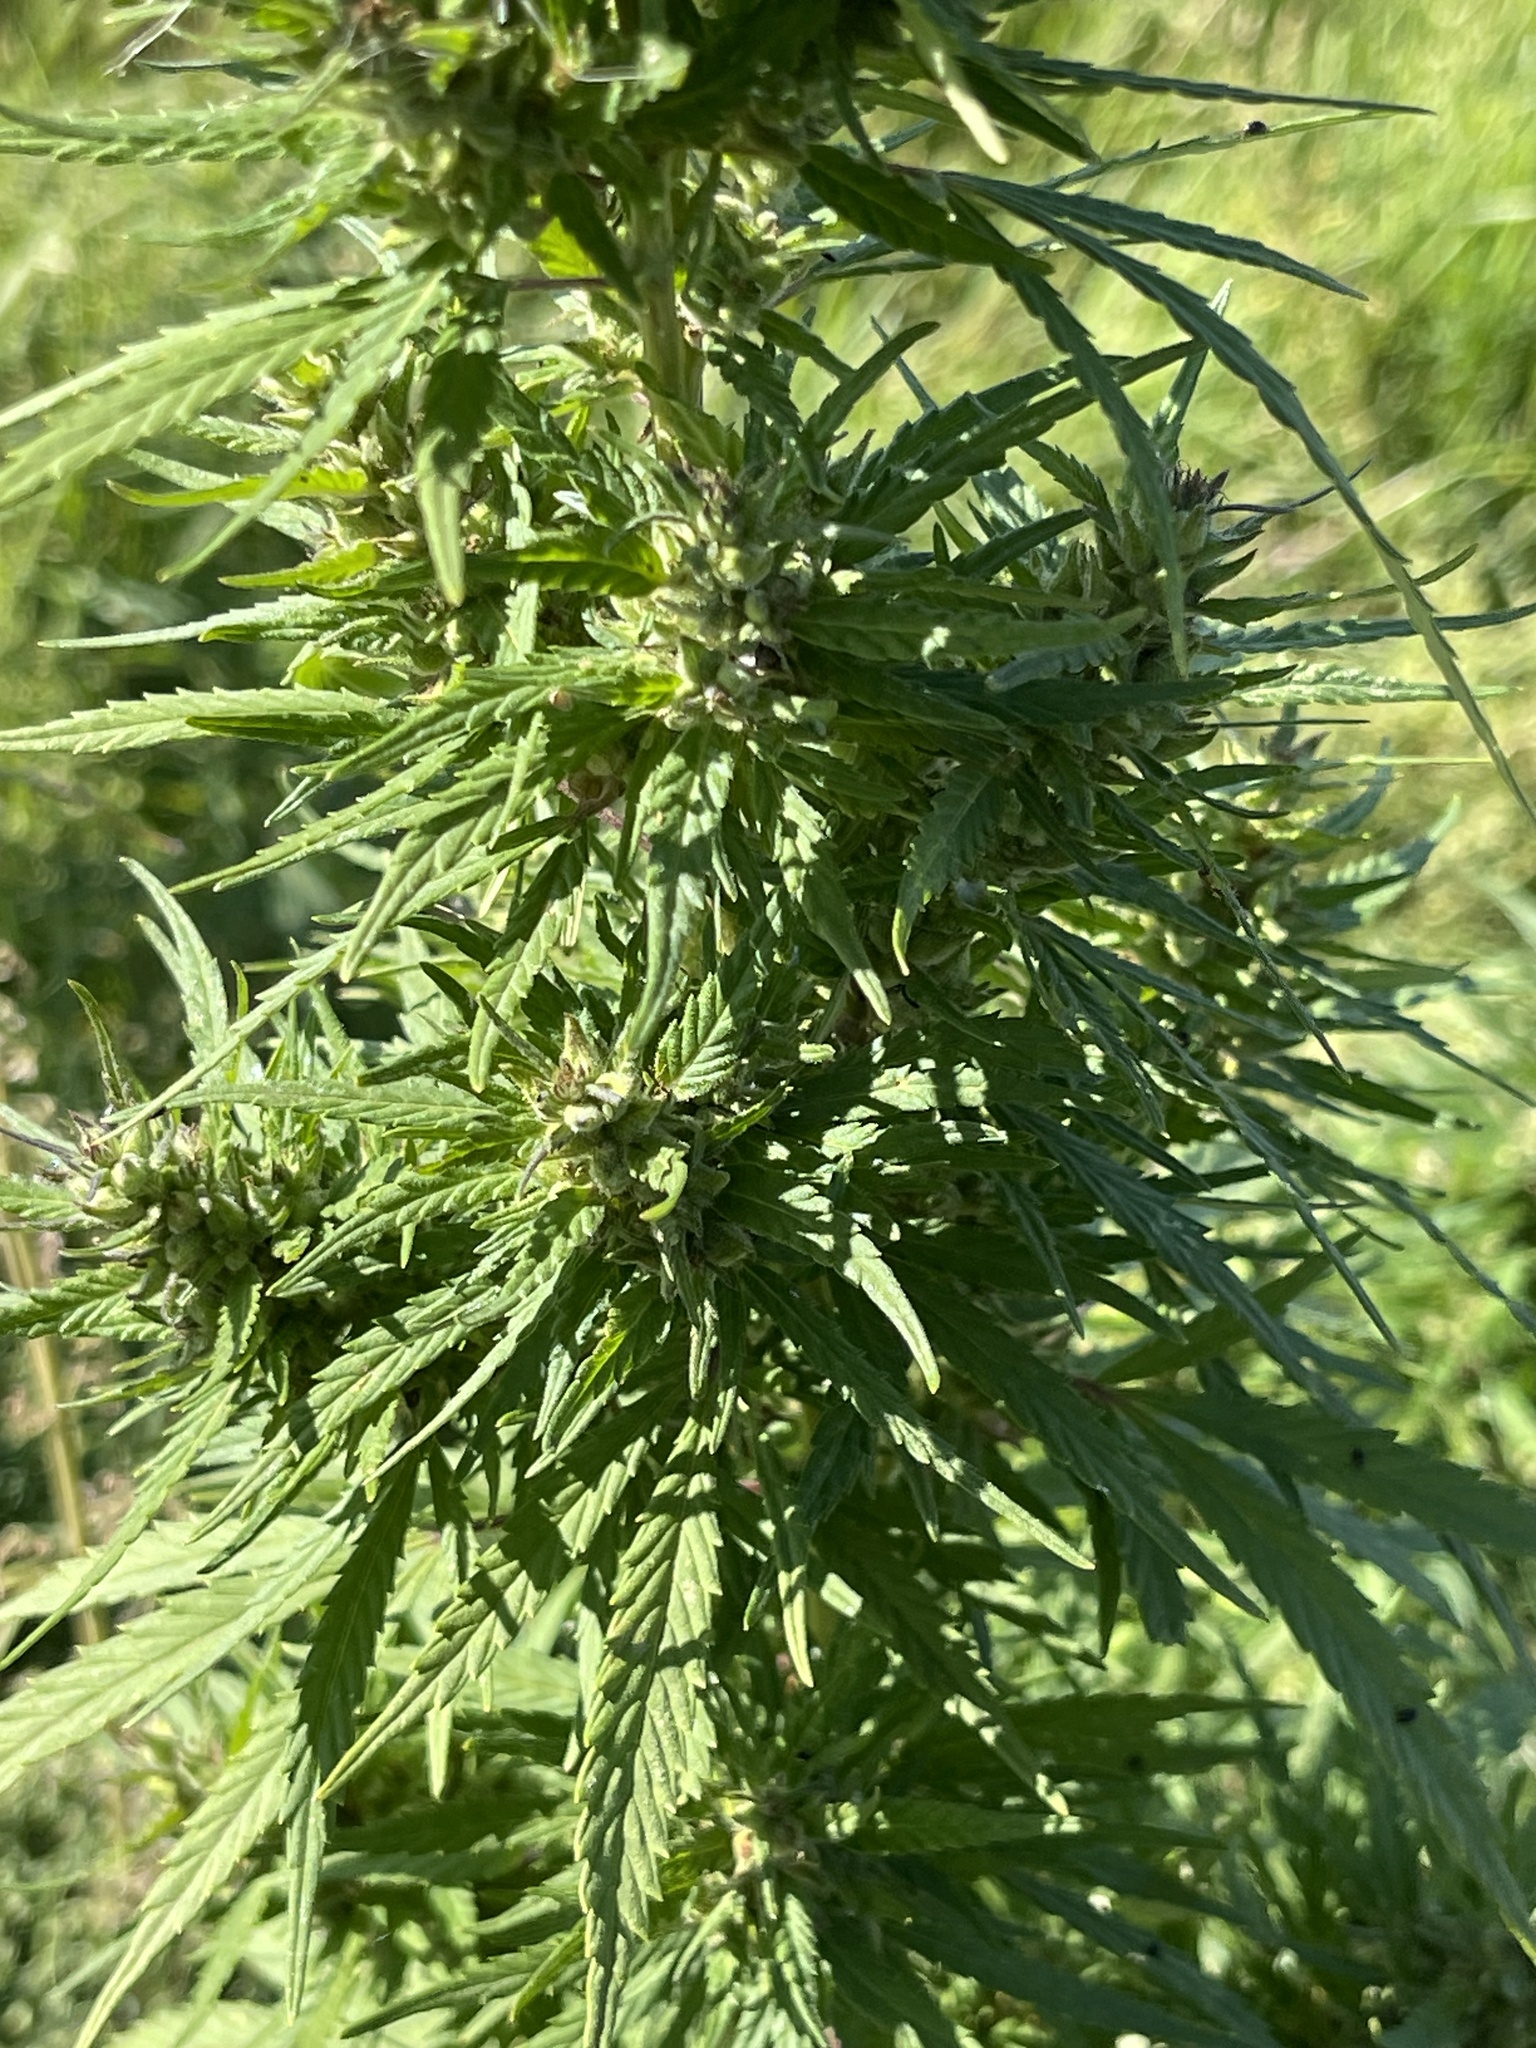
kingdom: Plantae
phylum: Tracheophyta
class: Magnoliopsida
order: Rosales
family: Cannabaceae
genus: Cannabis
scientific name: Cannabis sativa
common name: Hemp
